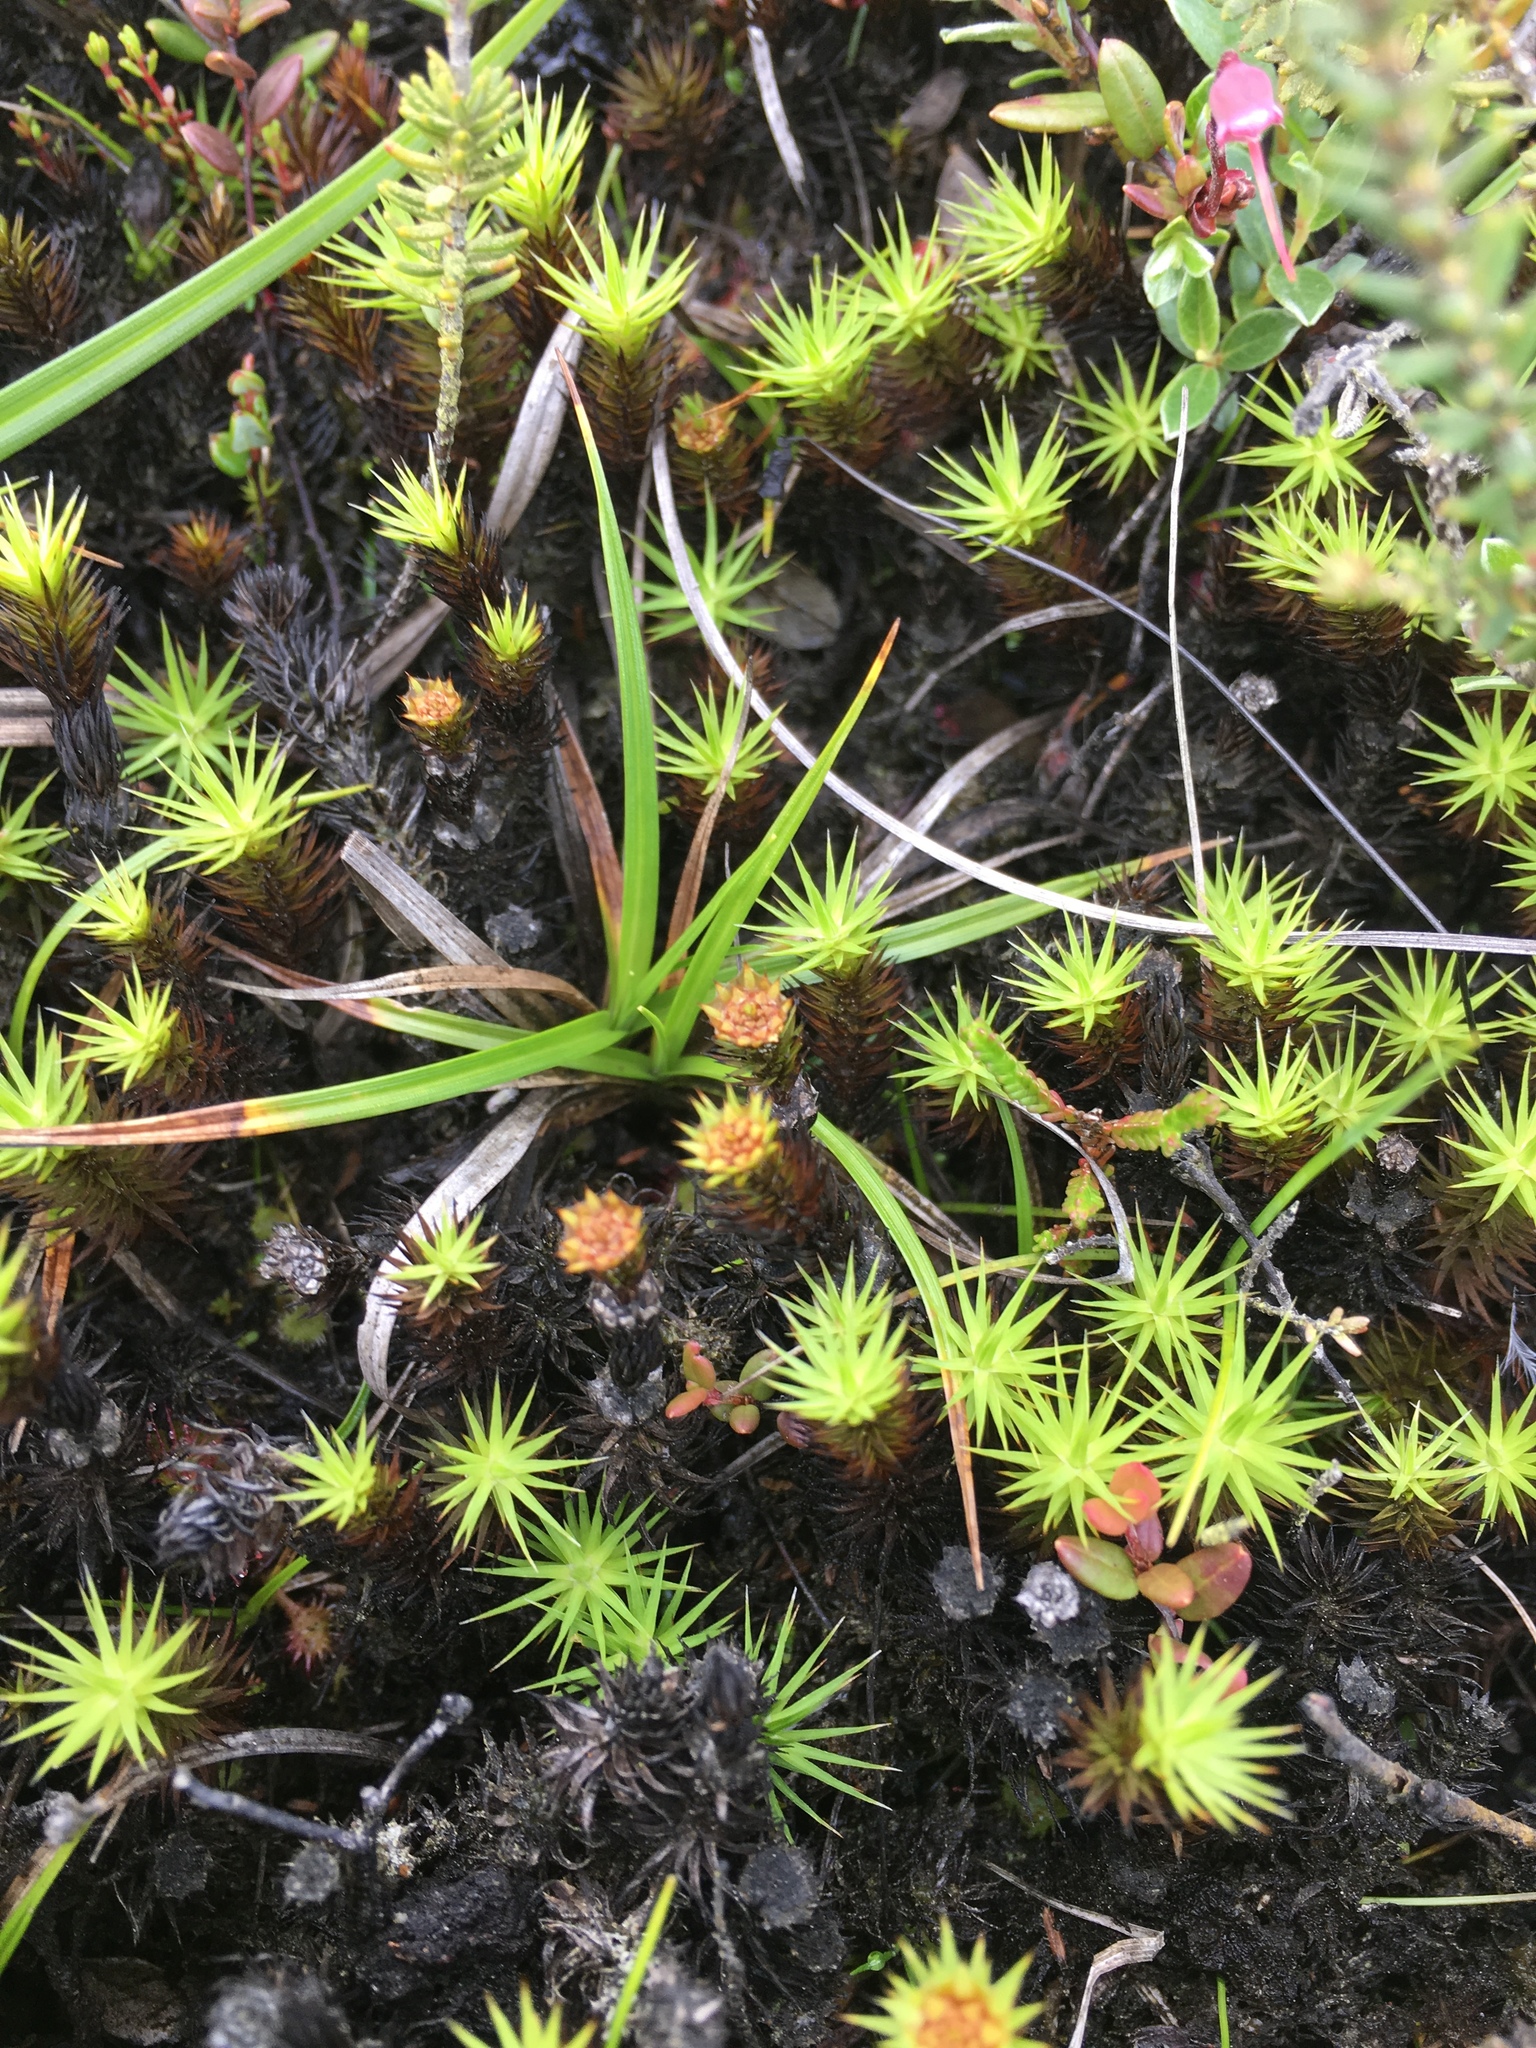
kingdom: Plantae
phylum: Bryophyta
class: Polytrichopsida
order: Polytrichales
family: Polytrichaceae
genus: Polytrichum
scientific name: Polytrichum juniperinum
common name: Juniper haircap moss
